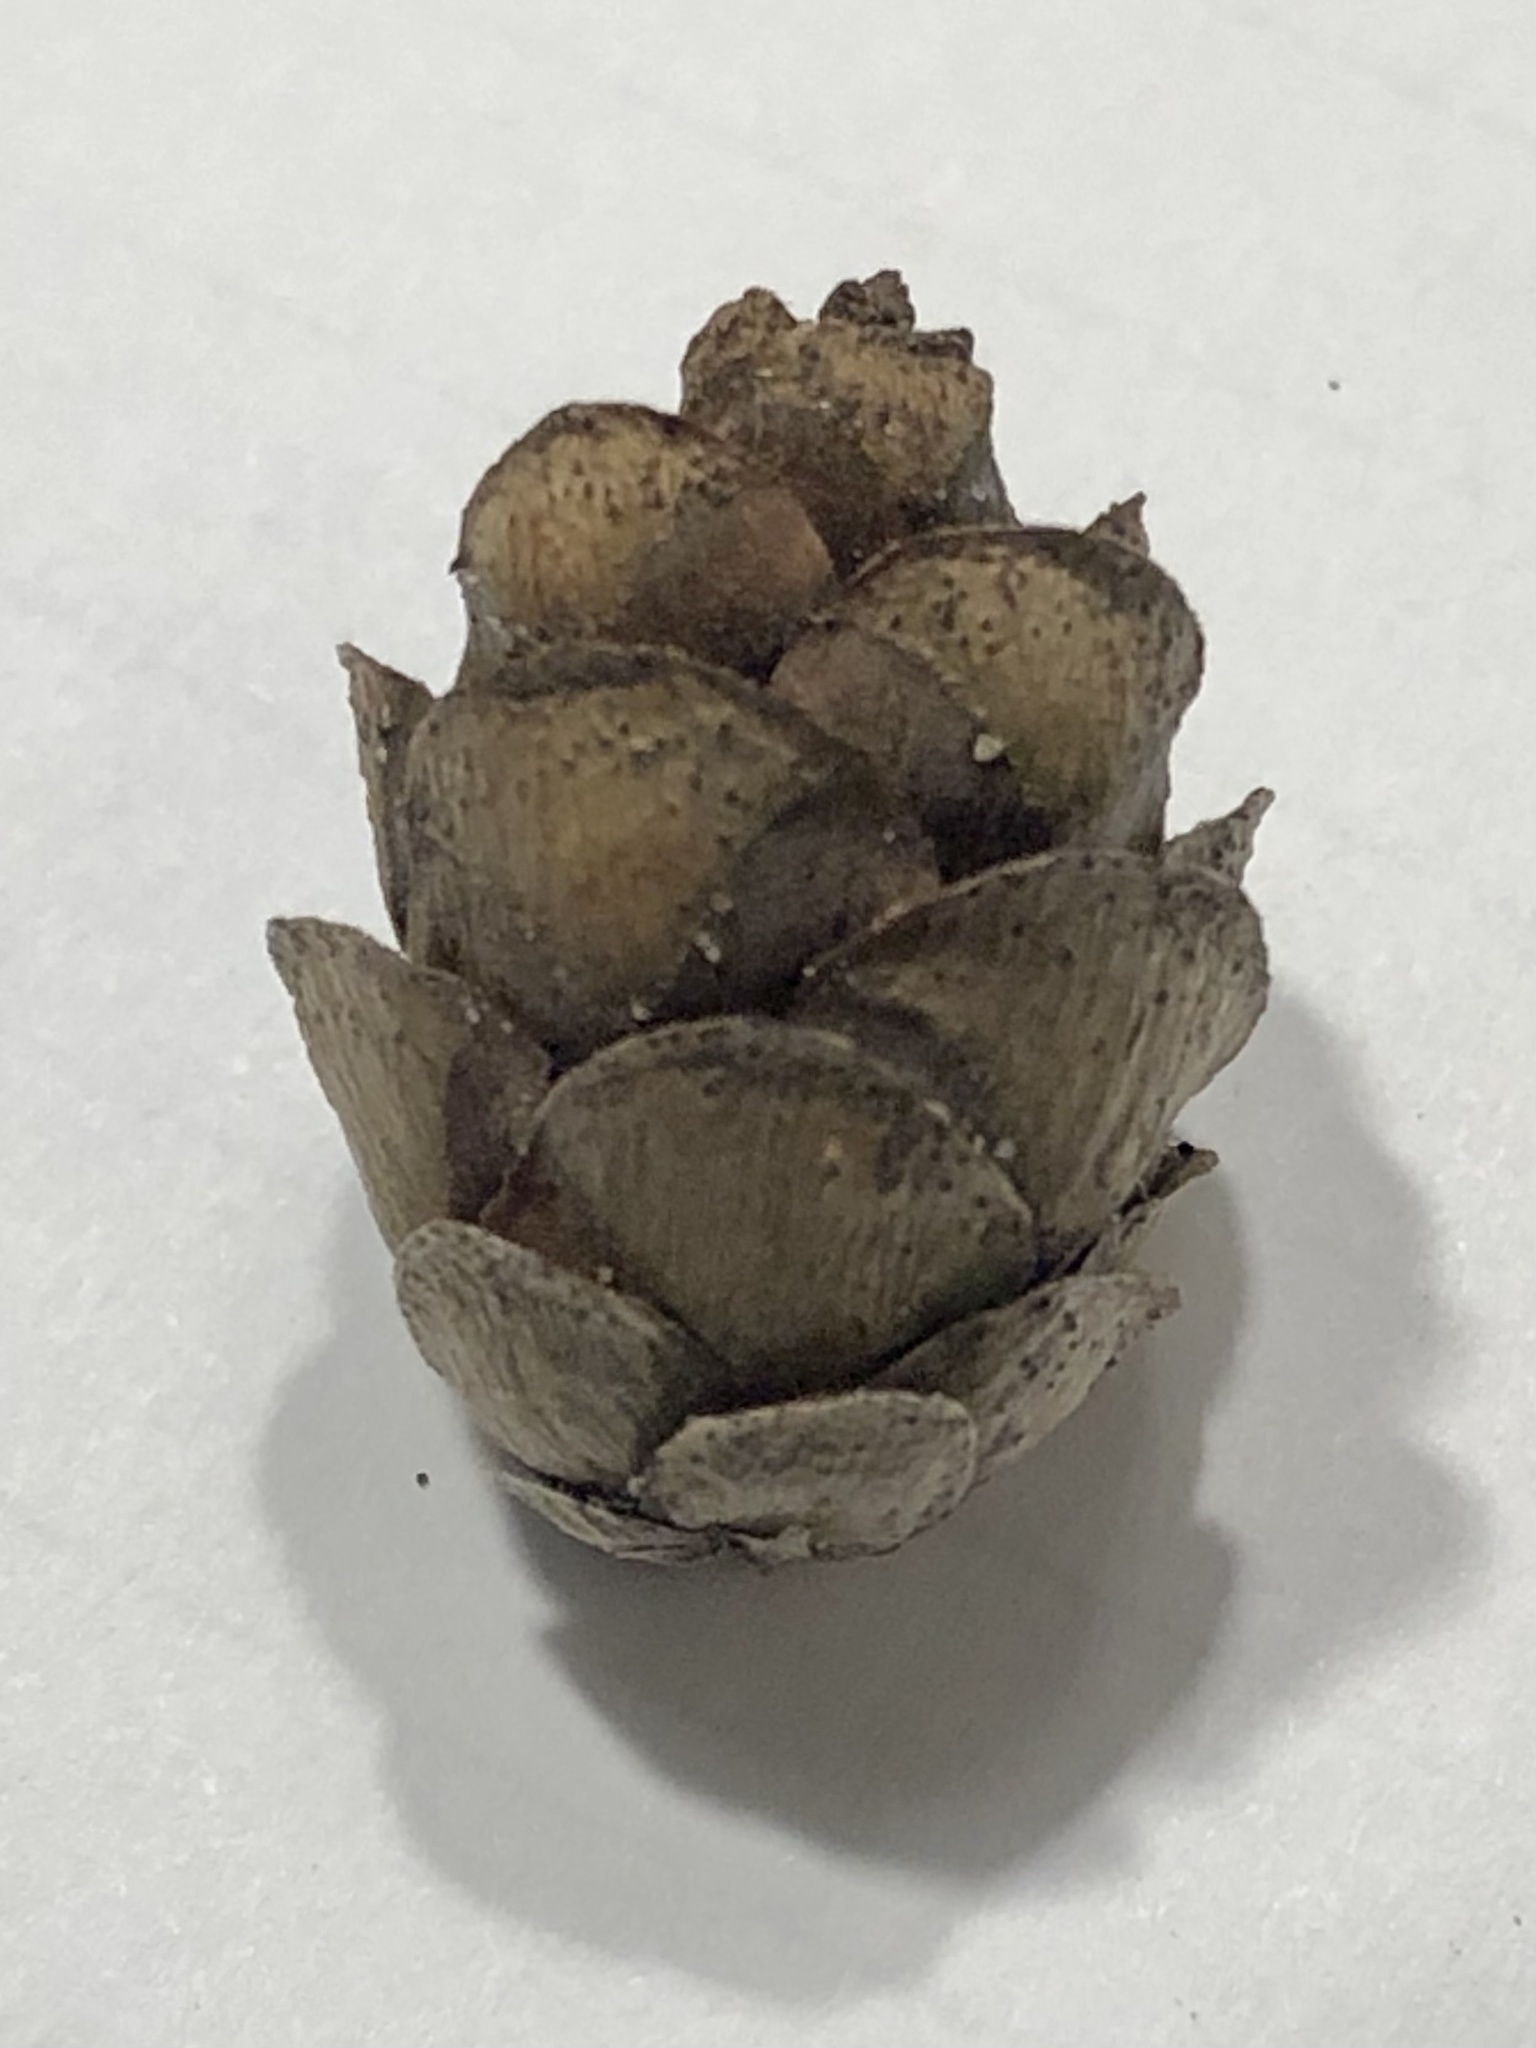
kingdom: Plantae
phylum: Tracheophyta
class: Pinopsida
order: Pinales
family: Pinaceae
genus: Tsuga
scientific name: Tsuga canadensis
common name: Eastern hemlock
